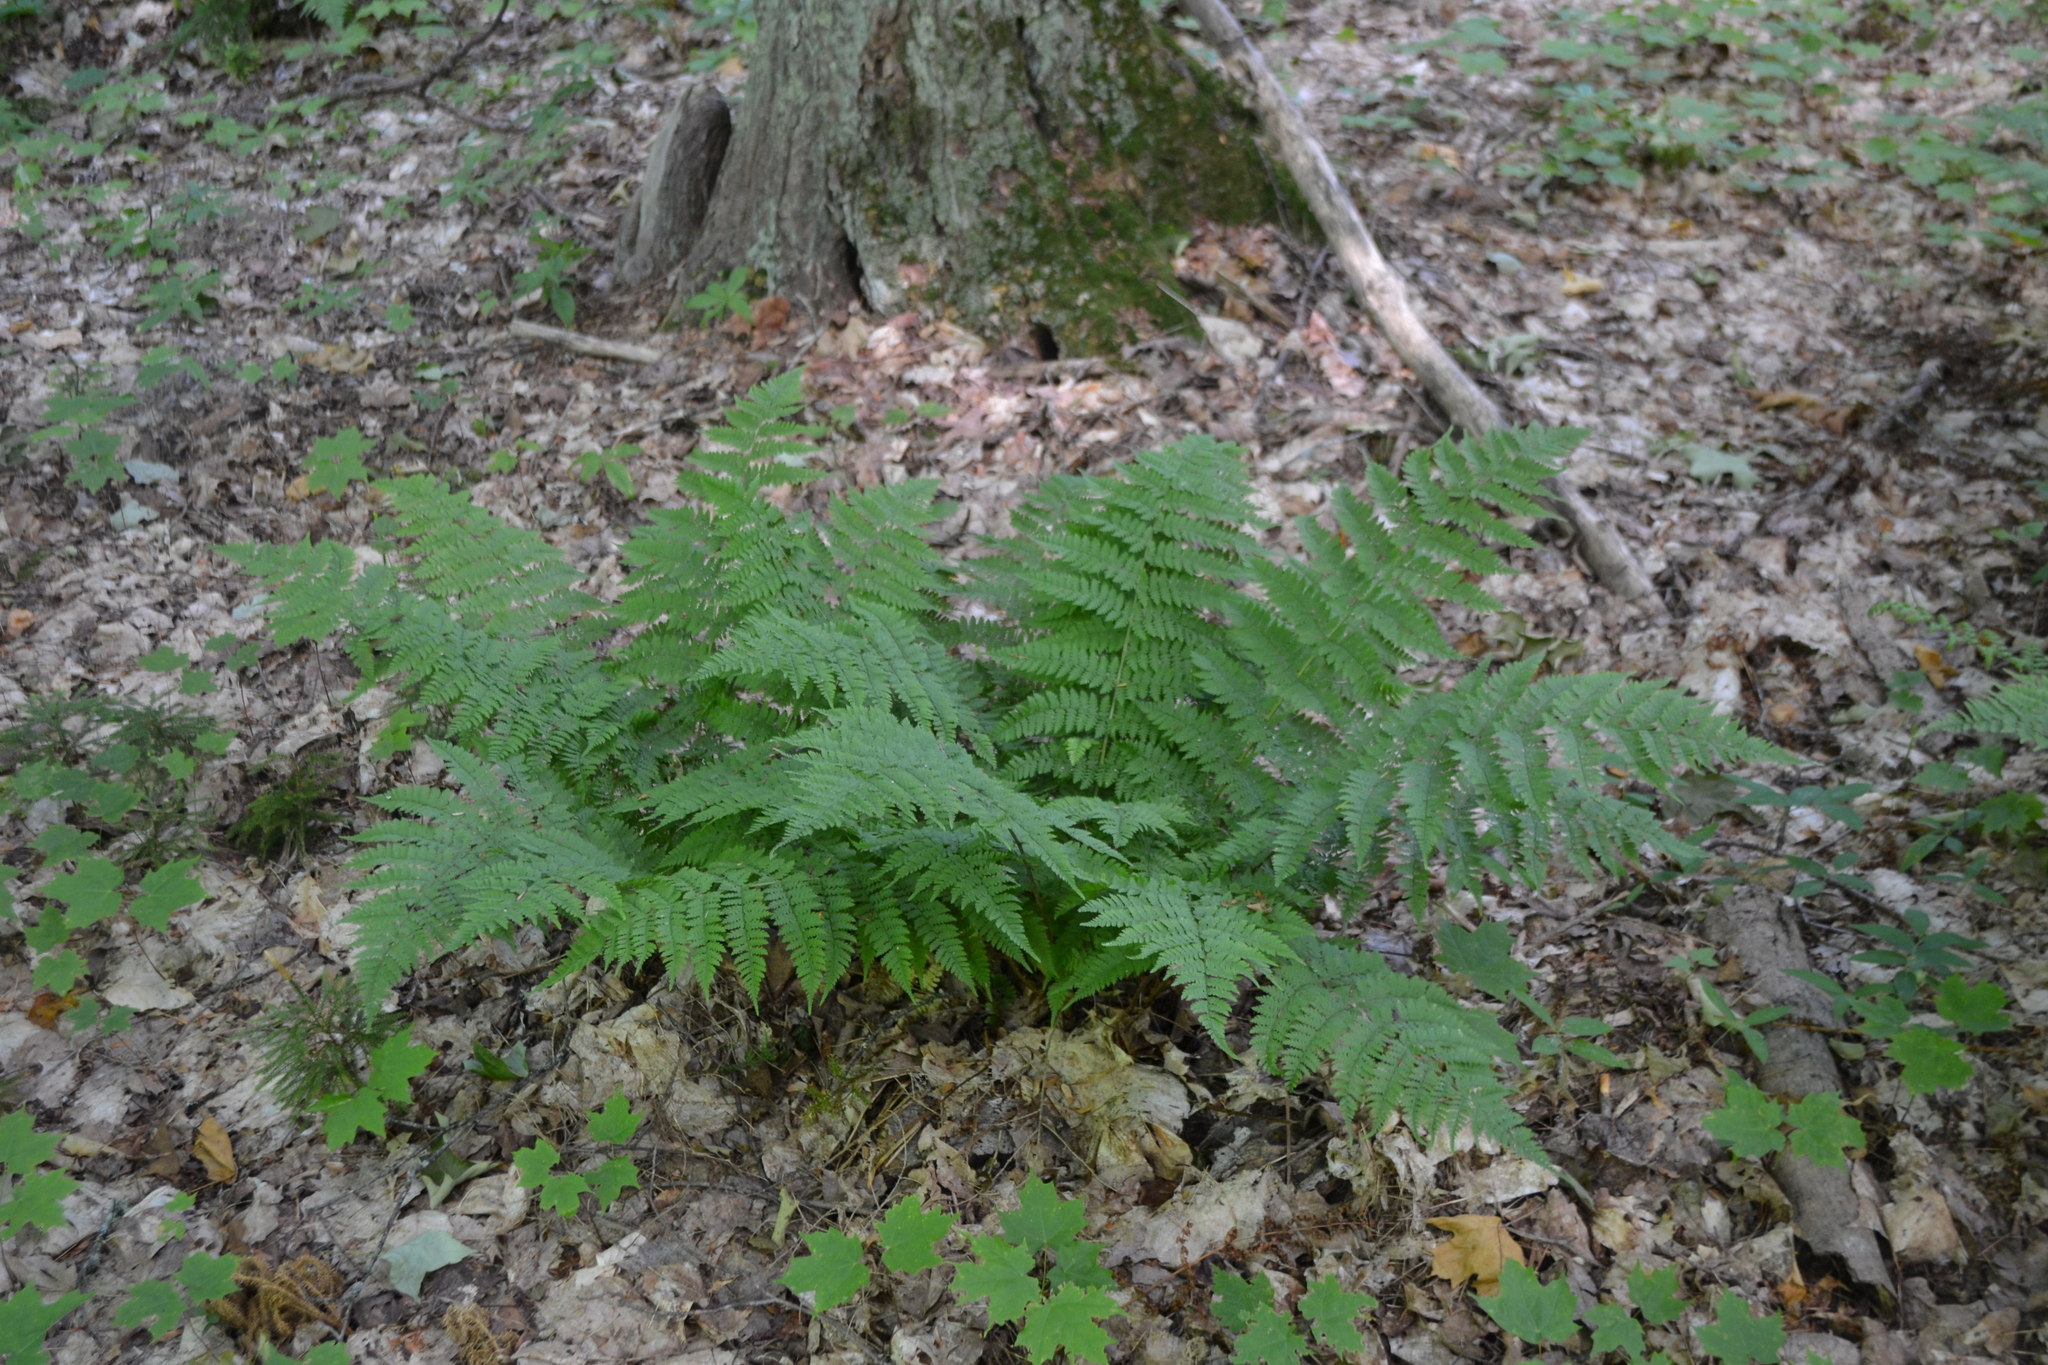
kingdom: Plantae
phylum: Tracheophyta
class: Polypodiopsida
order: Polypodiales
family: Dryopteridaceae
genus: Dryopteris
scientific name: Dryopteris intermedia
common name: Evergreen wood fern
